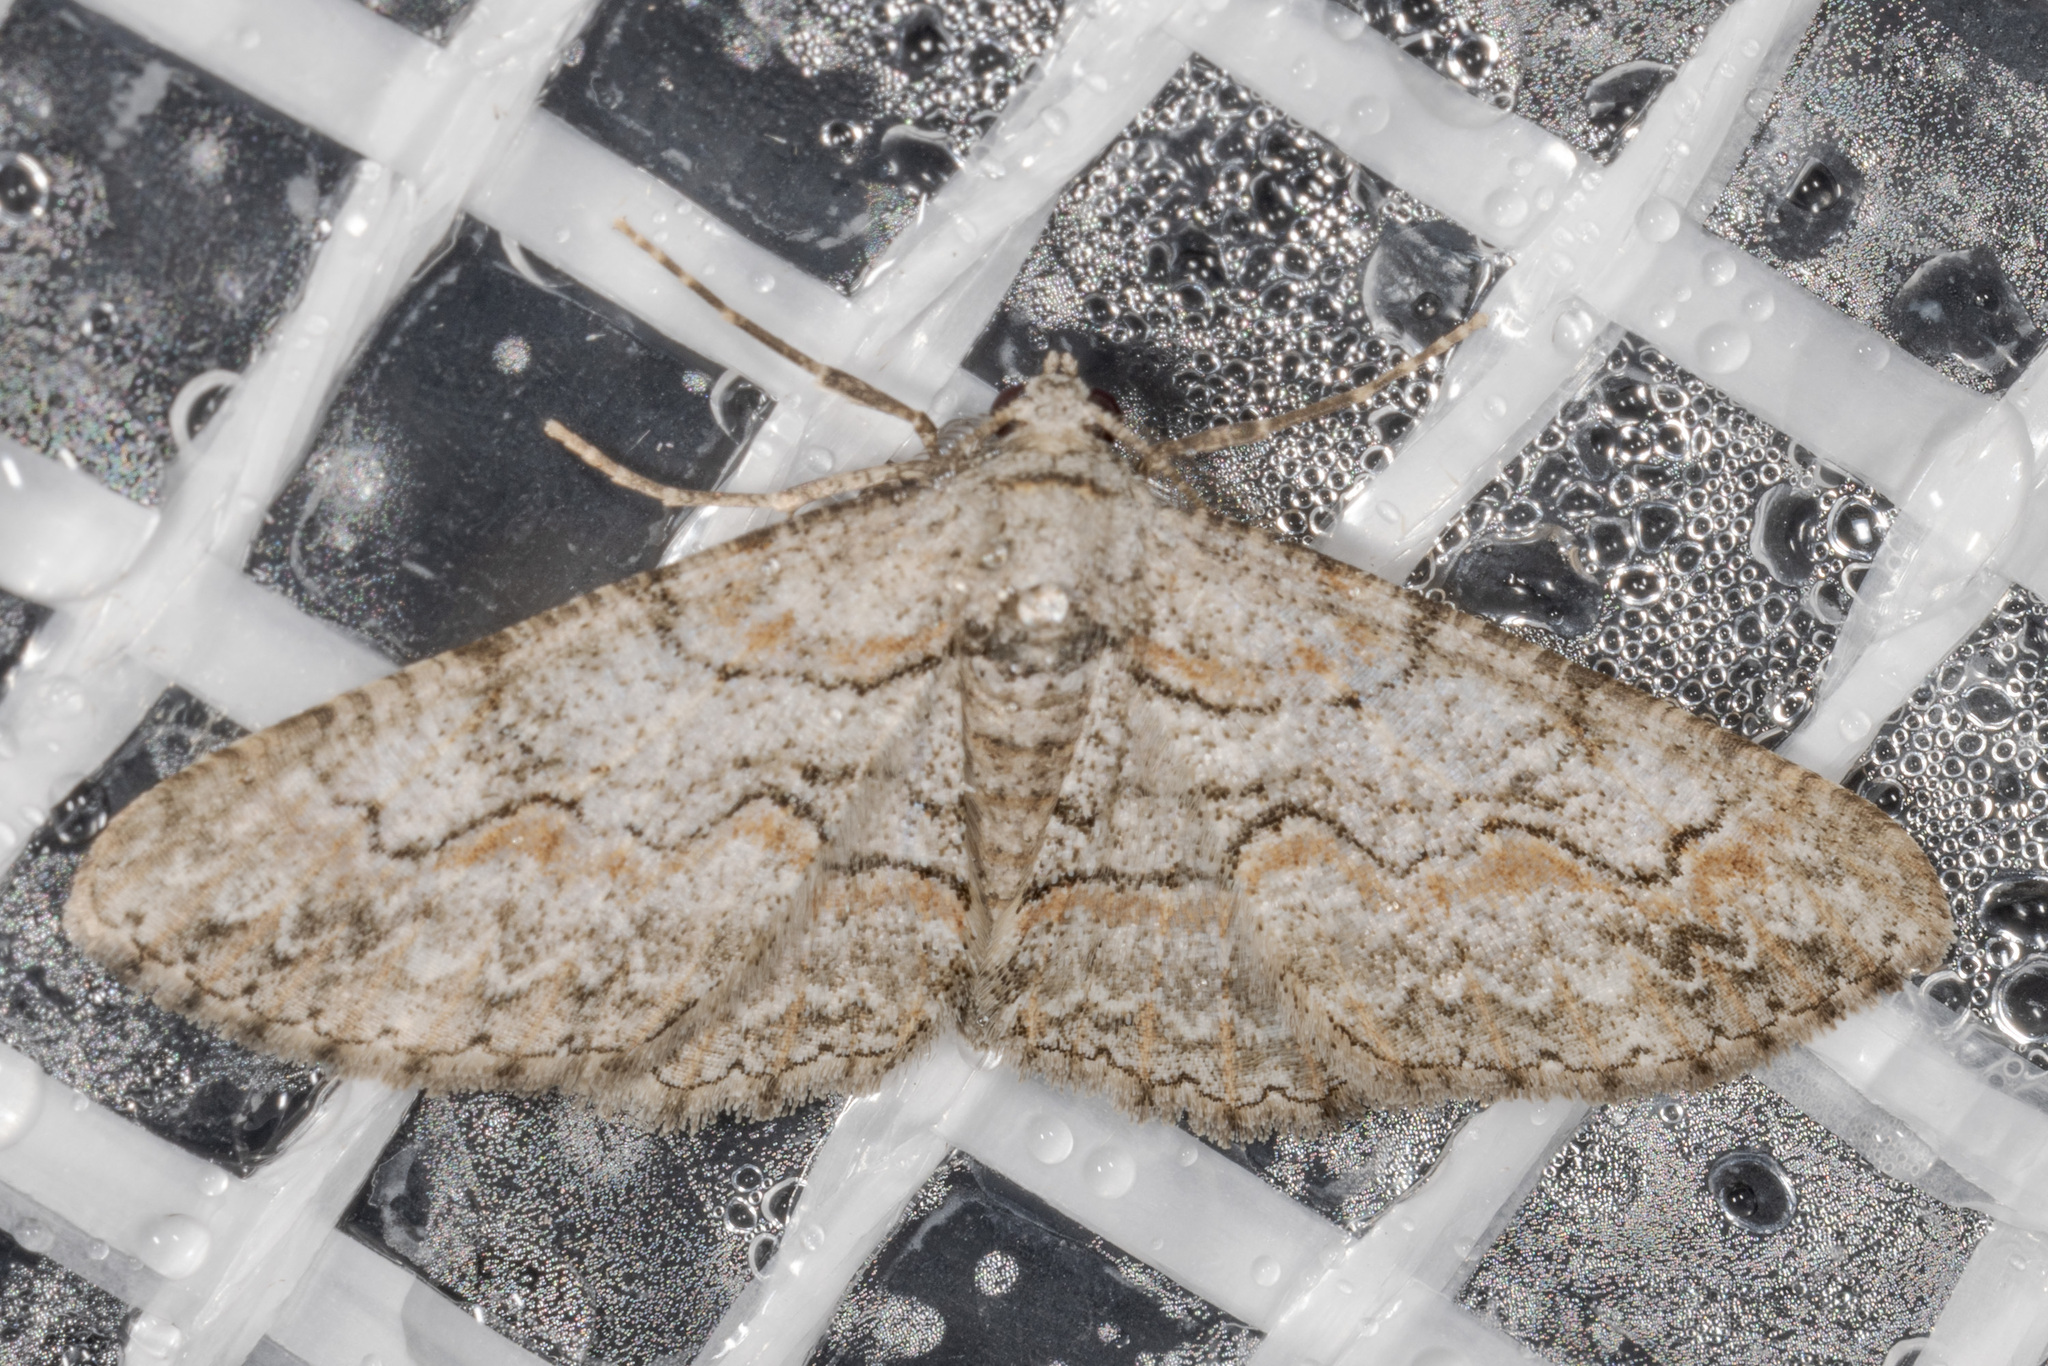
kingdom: Animalia
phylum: Arthropoda
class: Insecta
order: Lepidoptera
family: Geometridae
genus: Iridopsis
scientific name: Iridopsis defectaria
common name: Brown-shaded gray
